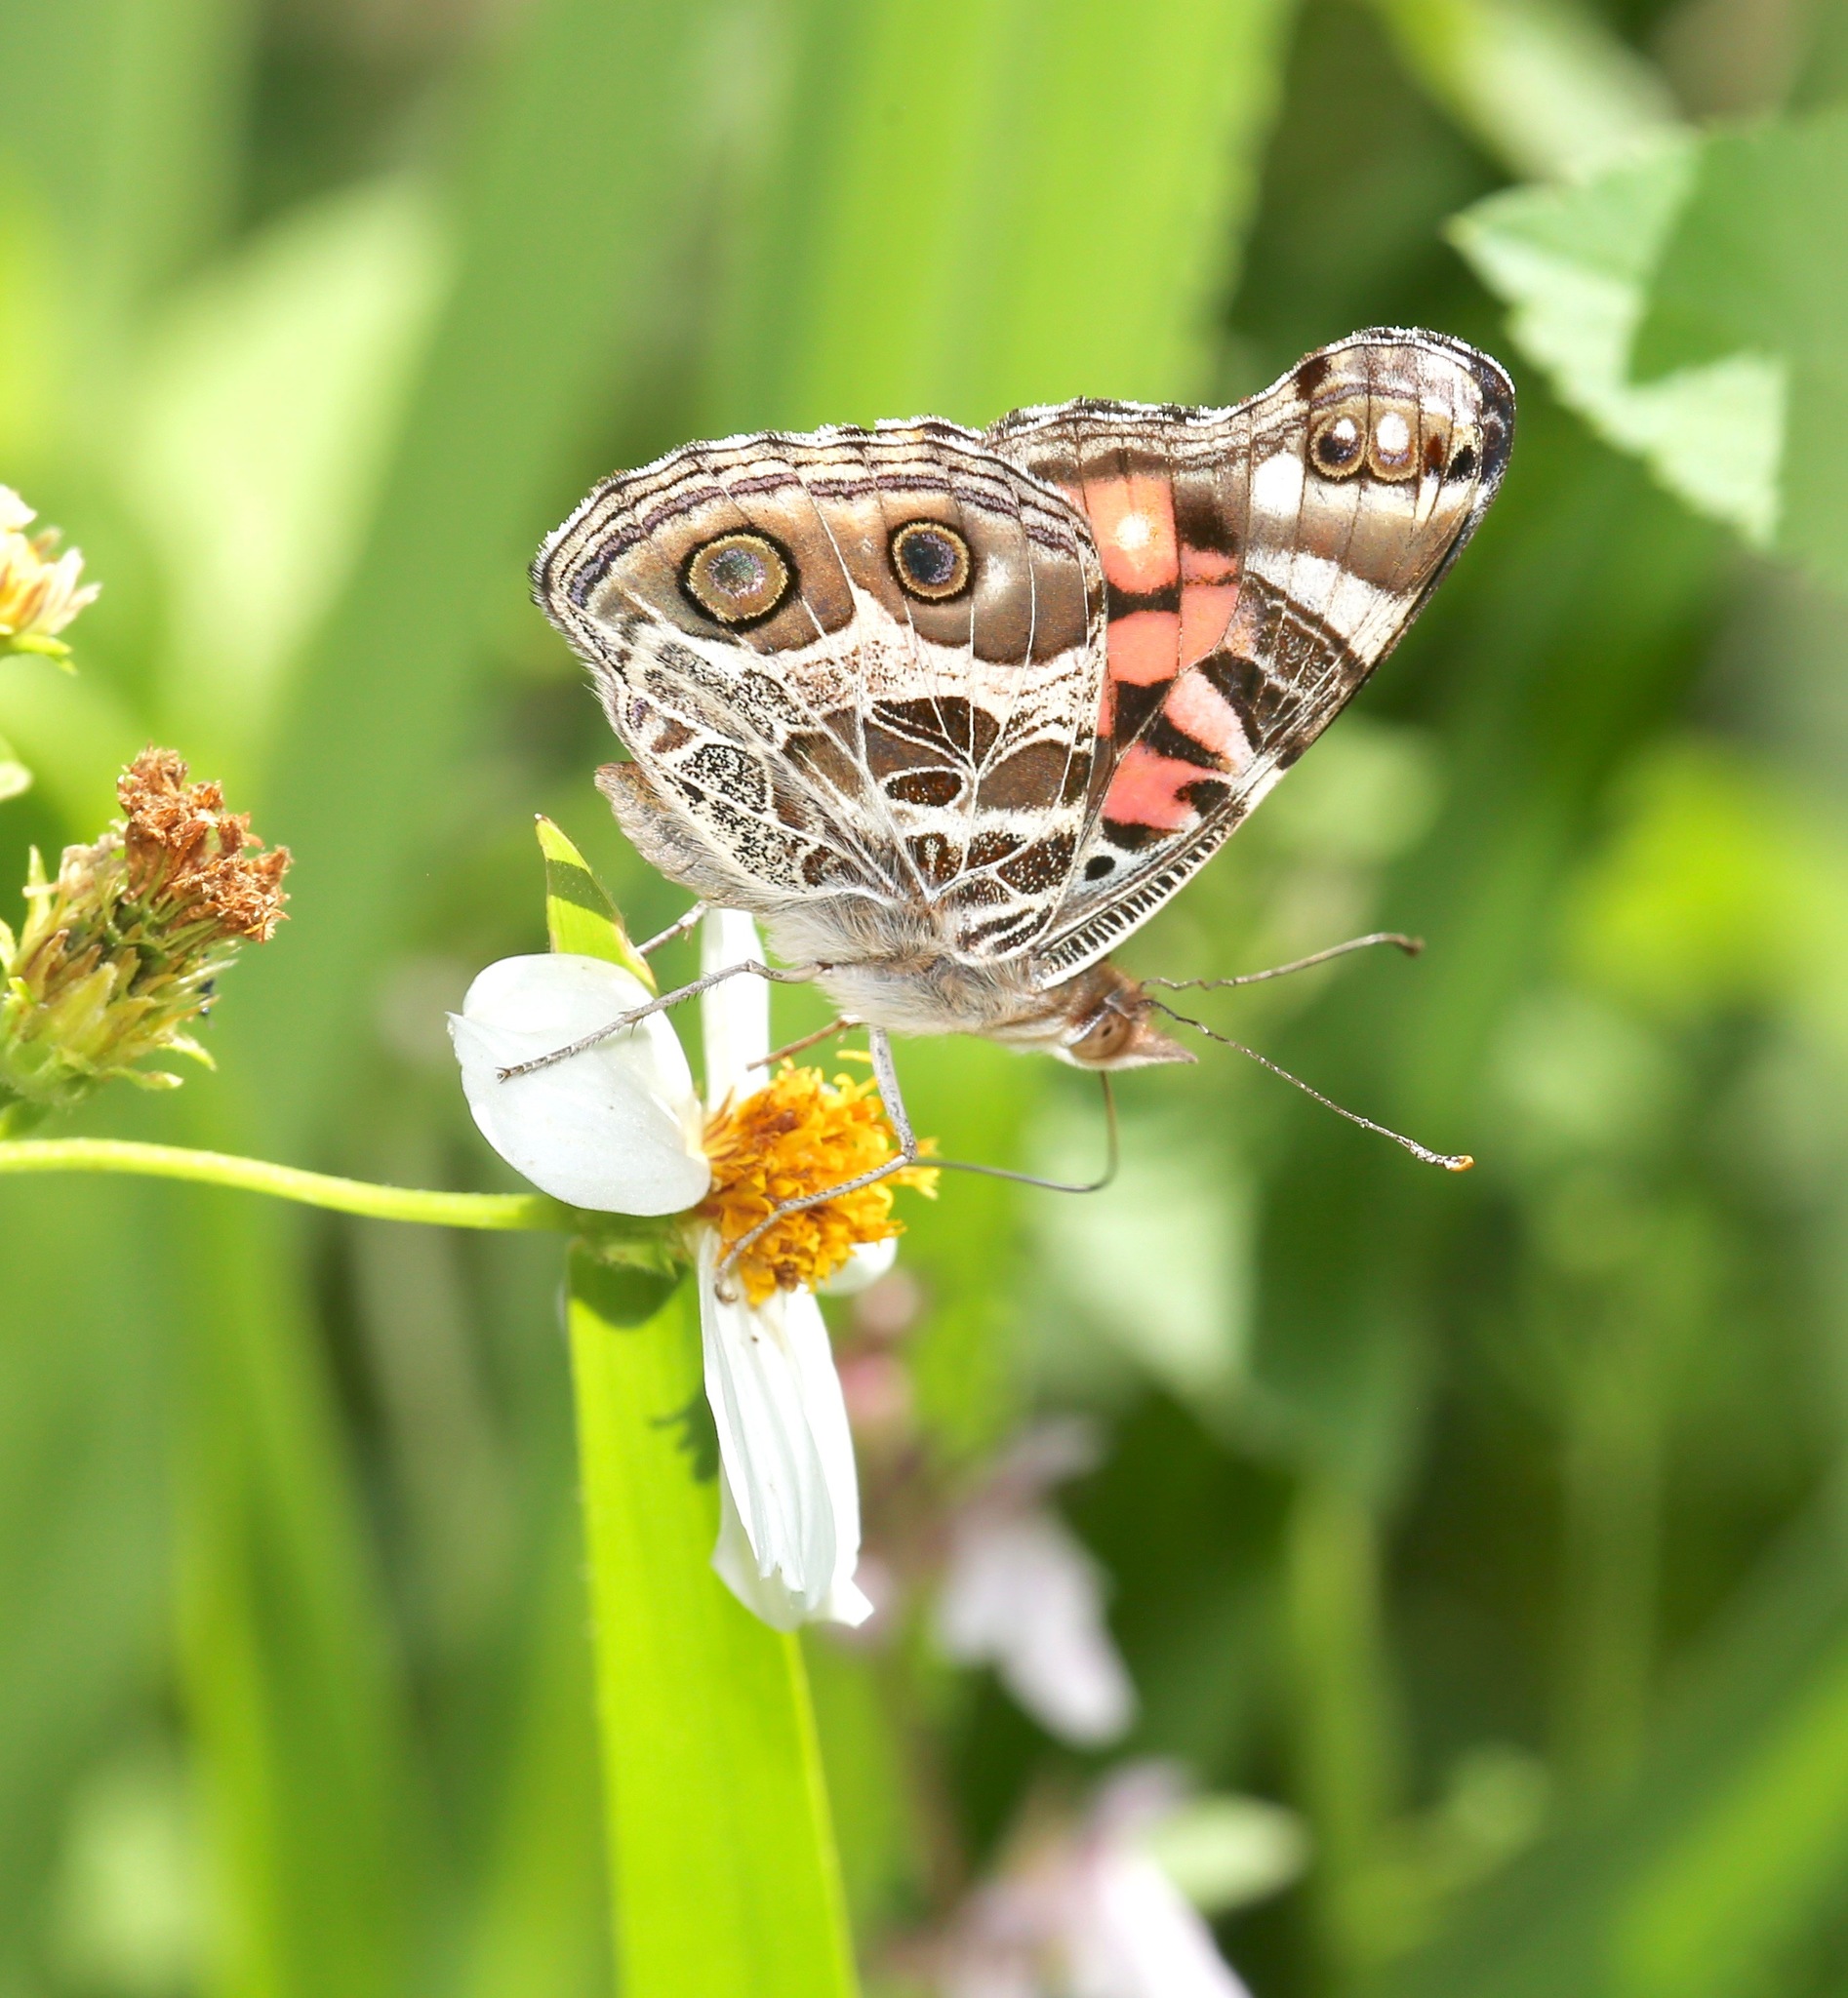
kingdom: Animalia
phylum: Arthropoda
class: Insecta
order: Lepidoptera
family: Nymphalidae
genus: Vanessa
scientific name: Vanessa virginiensis
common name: American lady
